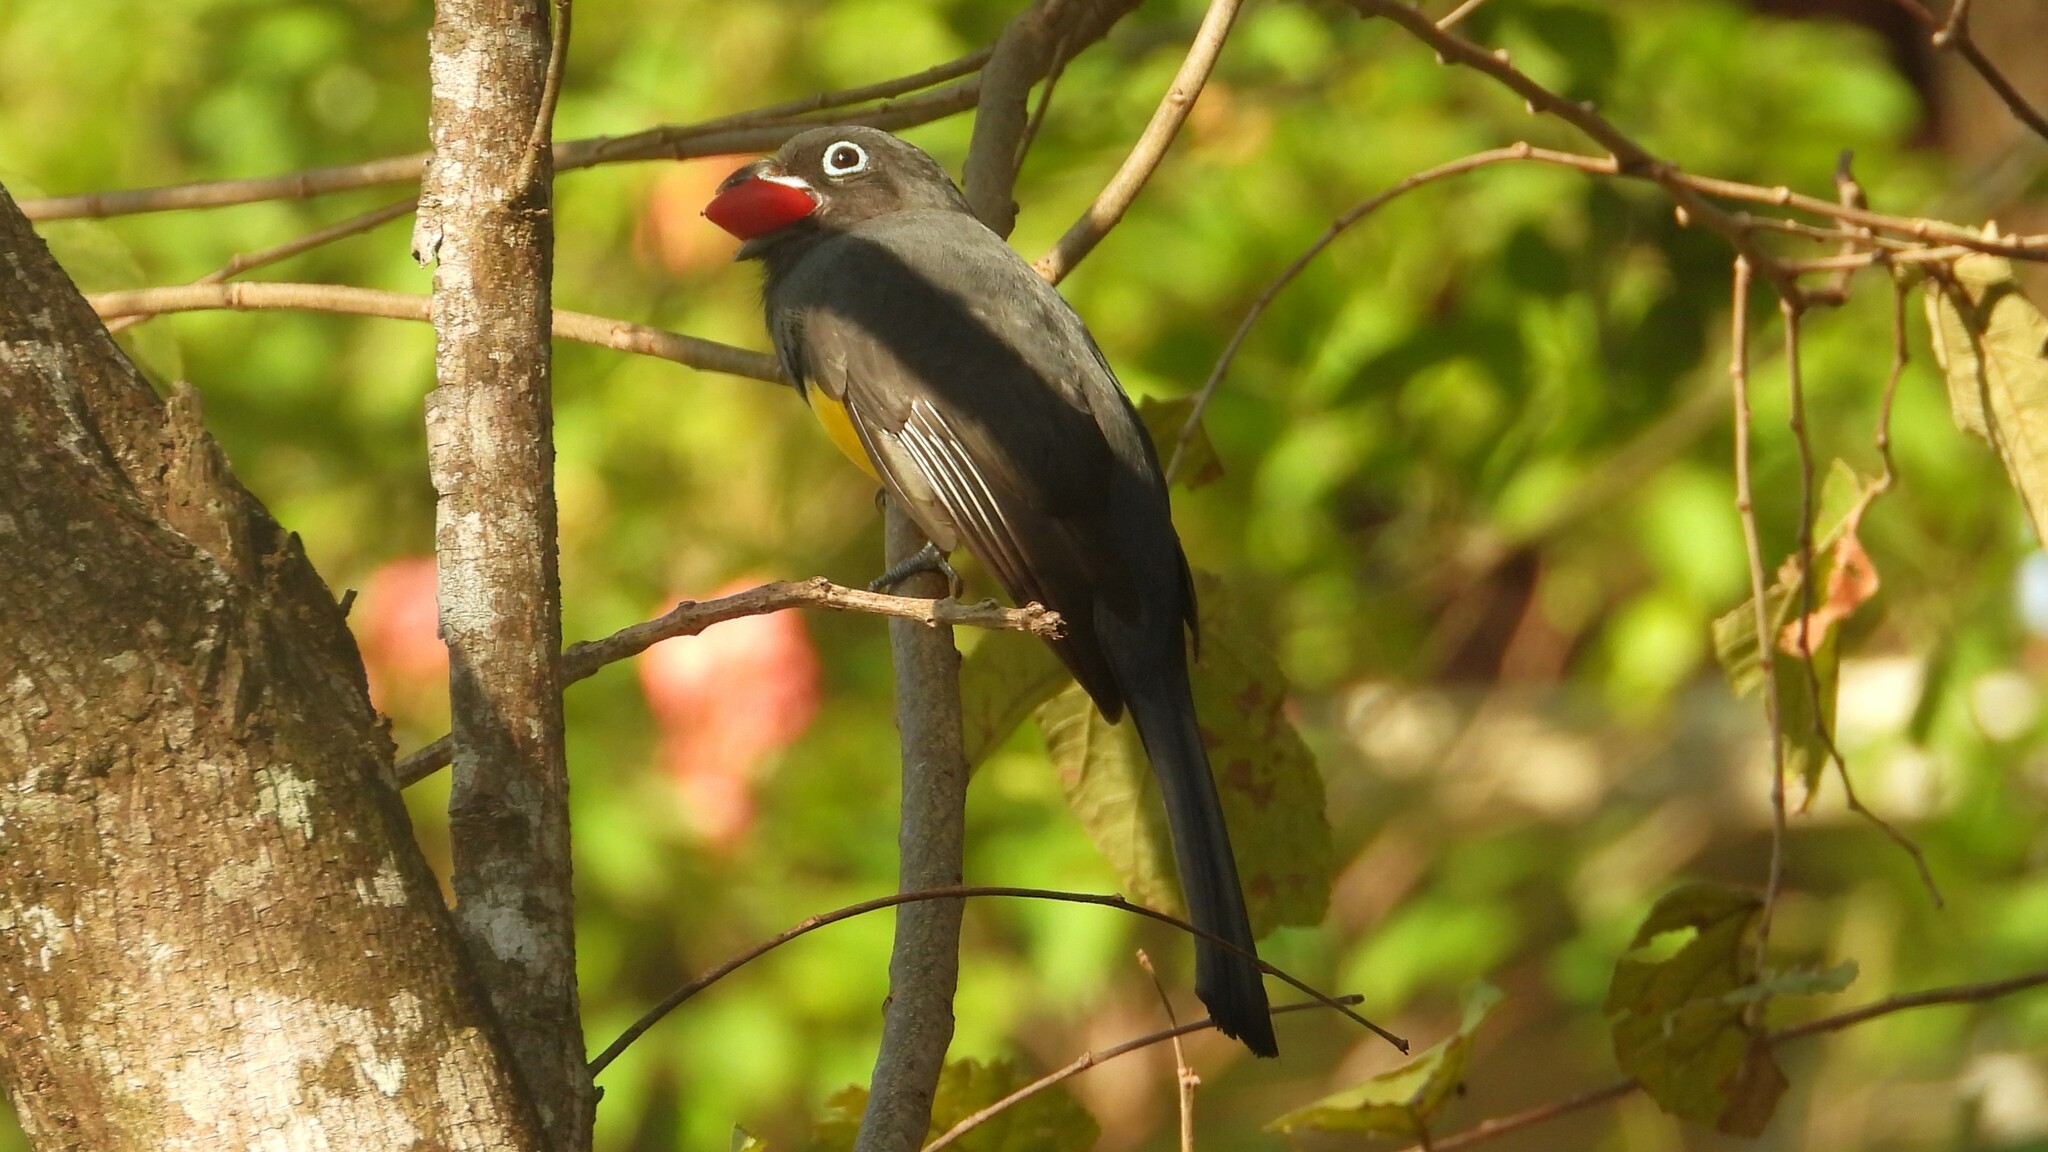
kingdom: Animalia
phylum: Chordata
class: Aves
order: Trogoniformes
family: Trogonidae
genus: Trogon
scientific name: Trogon melanocephalus
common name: Black-headed trogon
